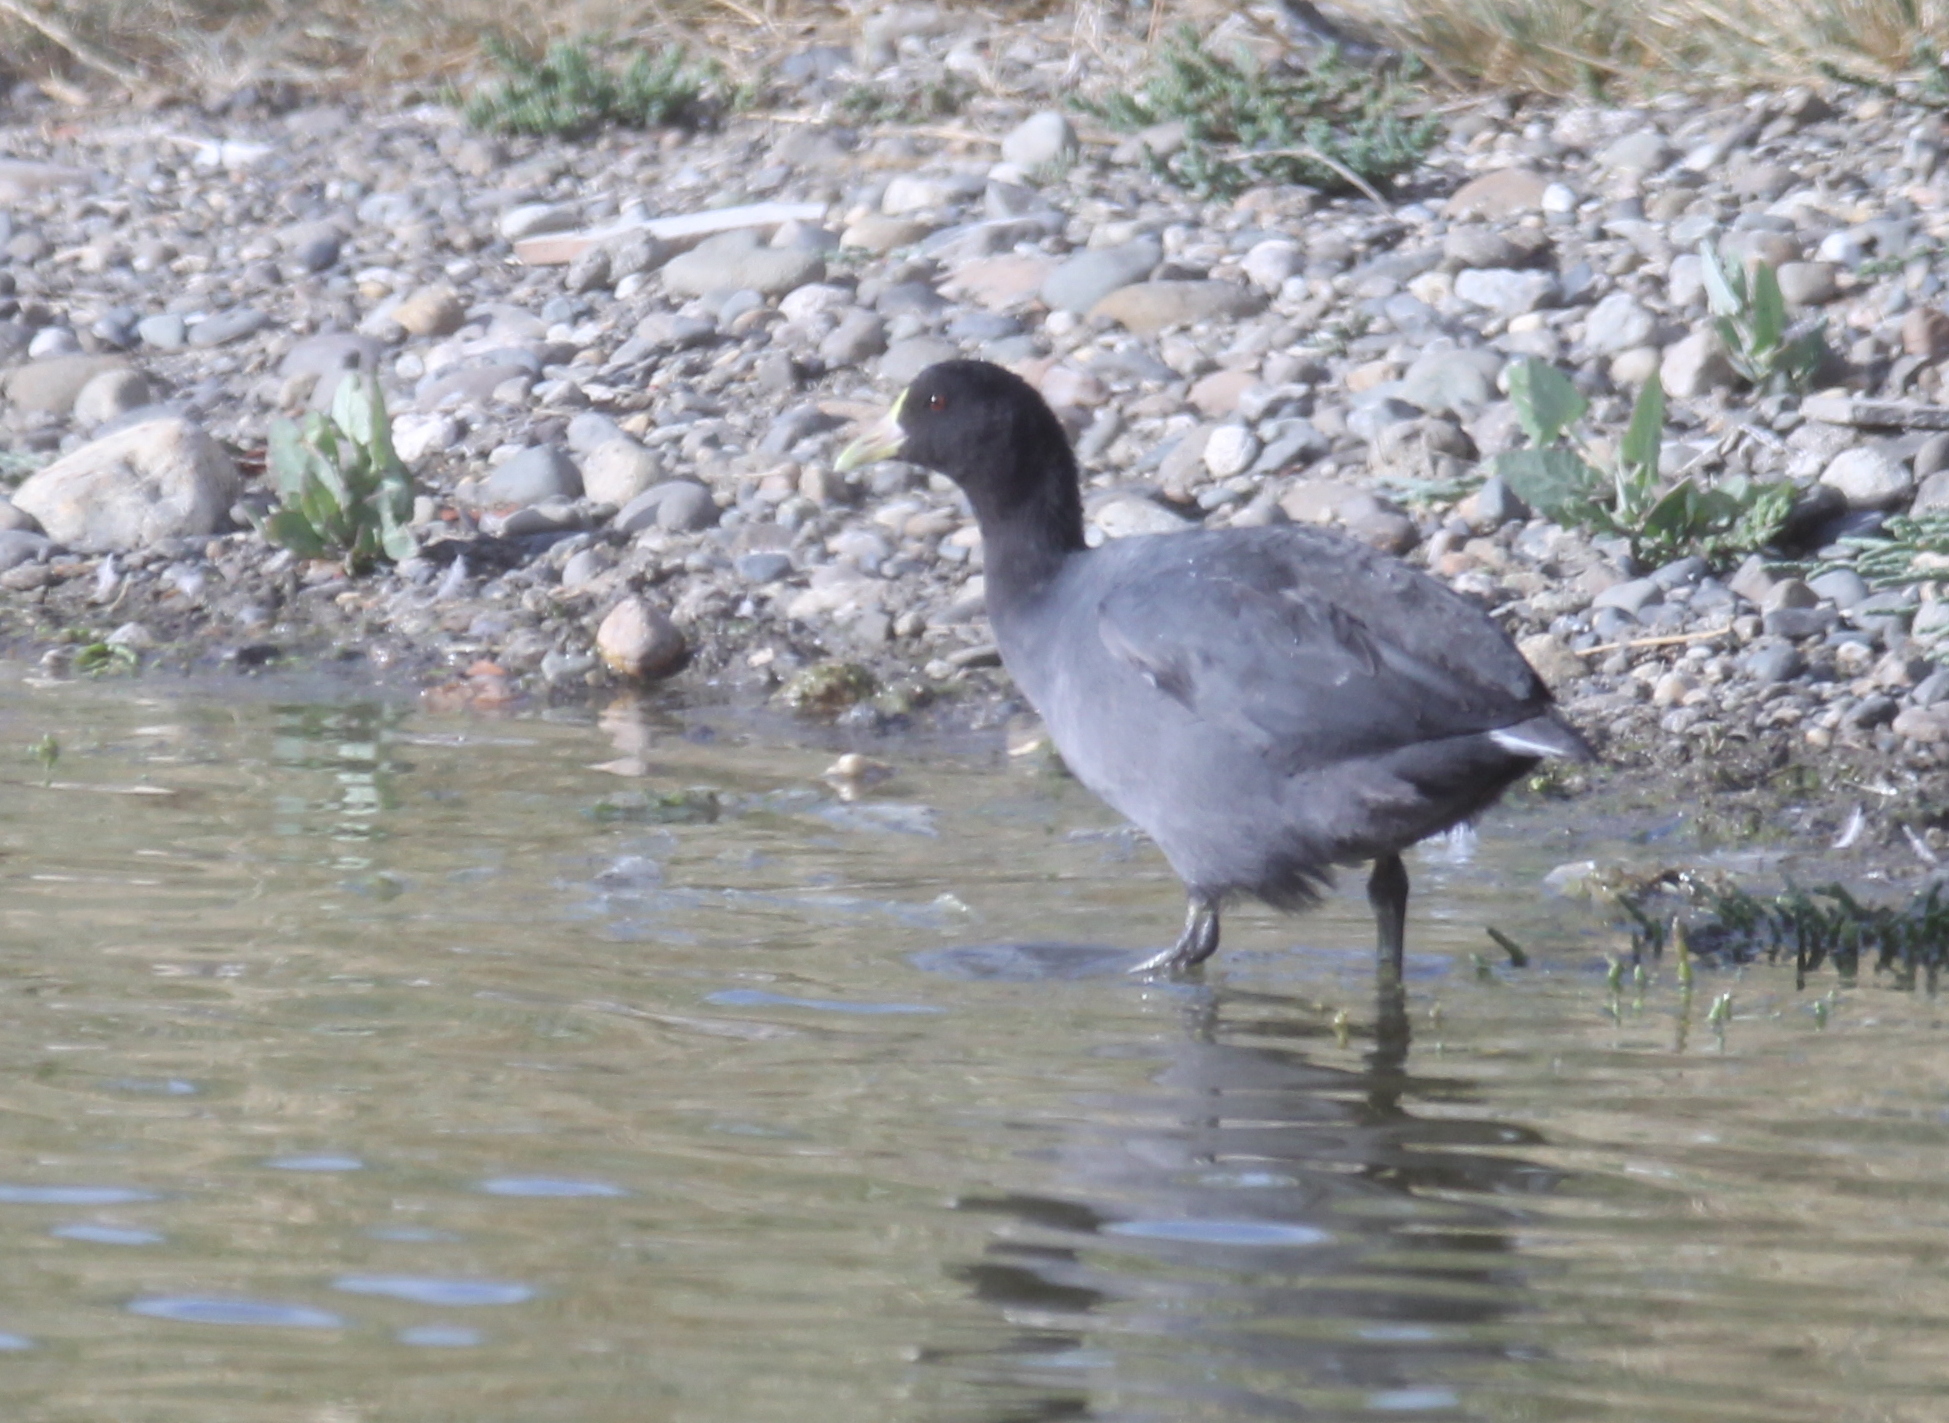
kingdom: Animalia
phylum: Chordata
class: Aves
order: Gruiformes
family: Rallidae
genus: Fulica
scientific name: Fulica leucoptera
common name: White-winged coot
